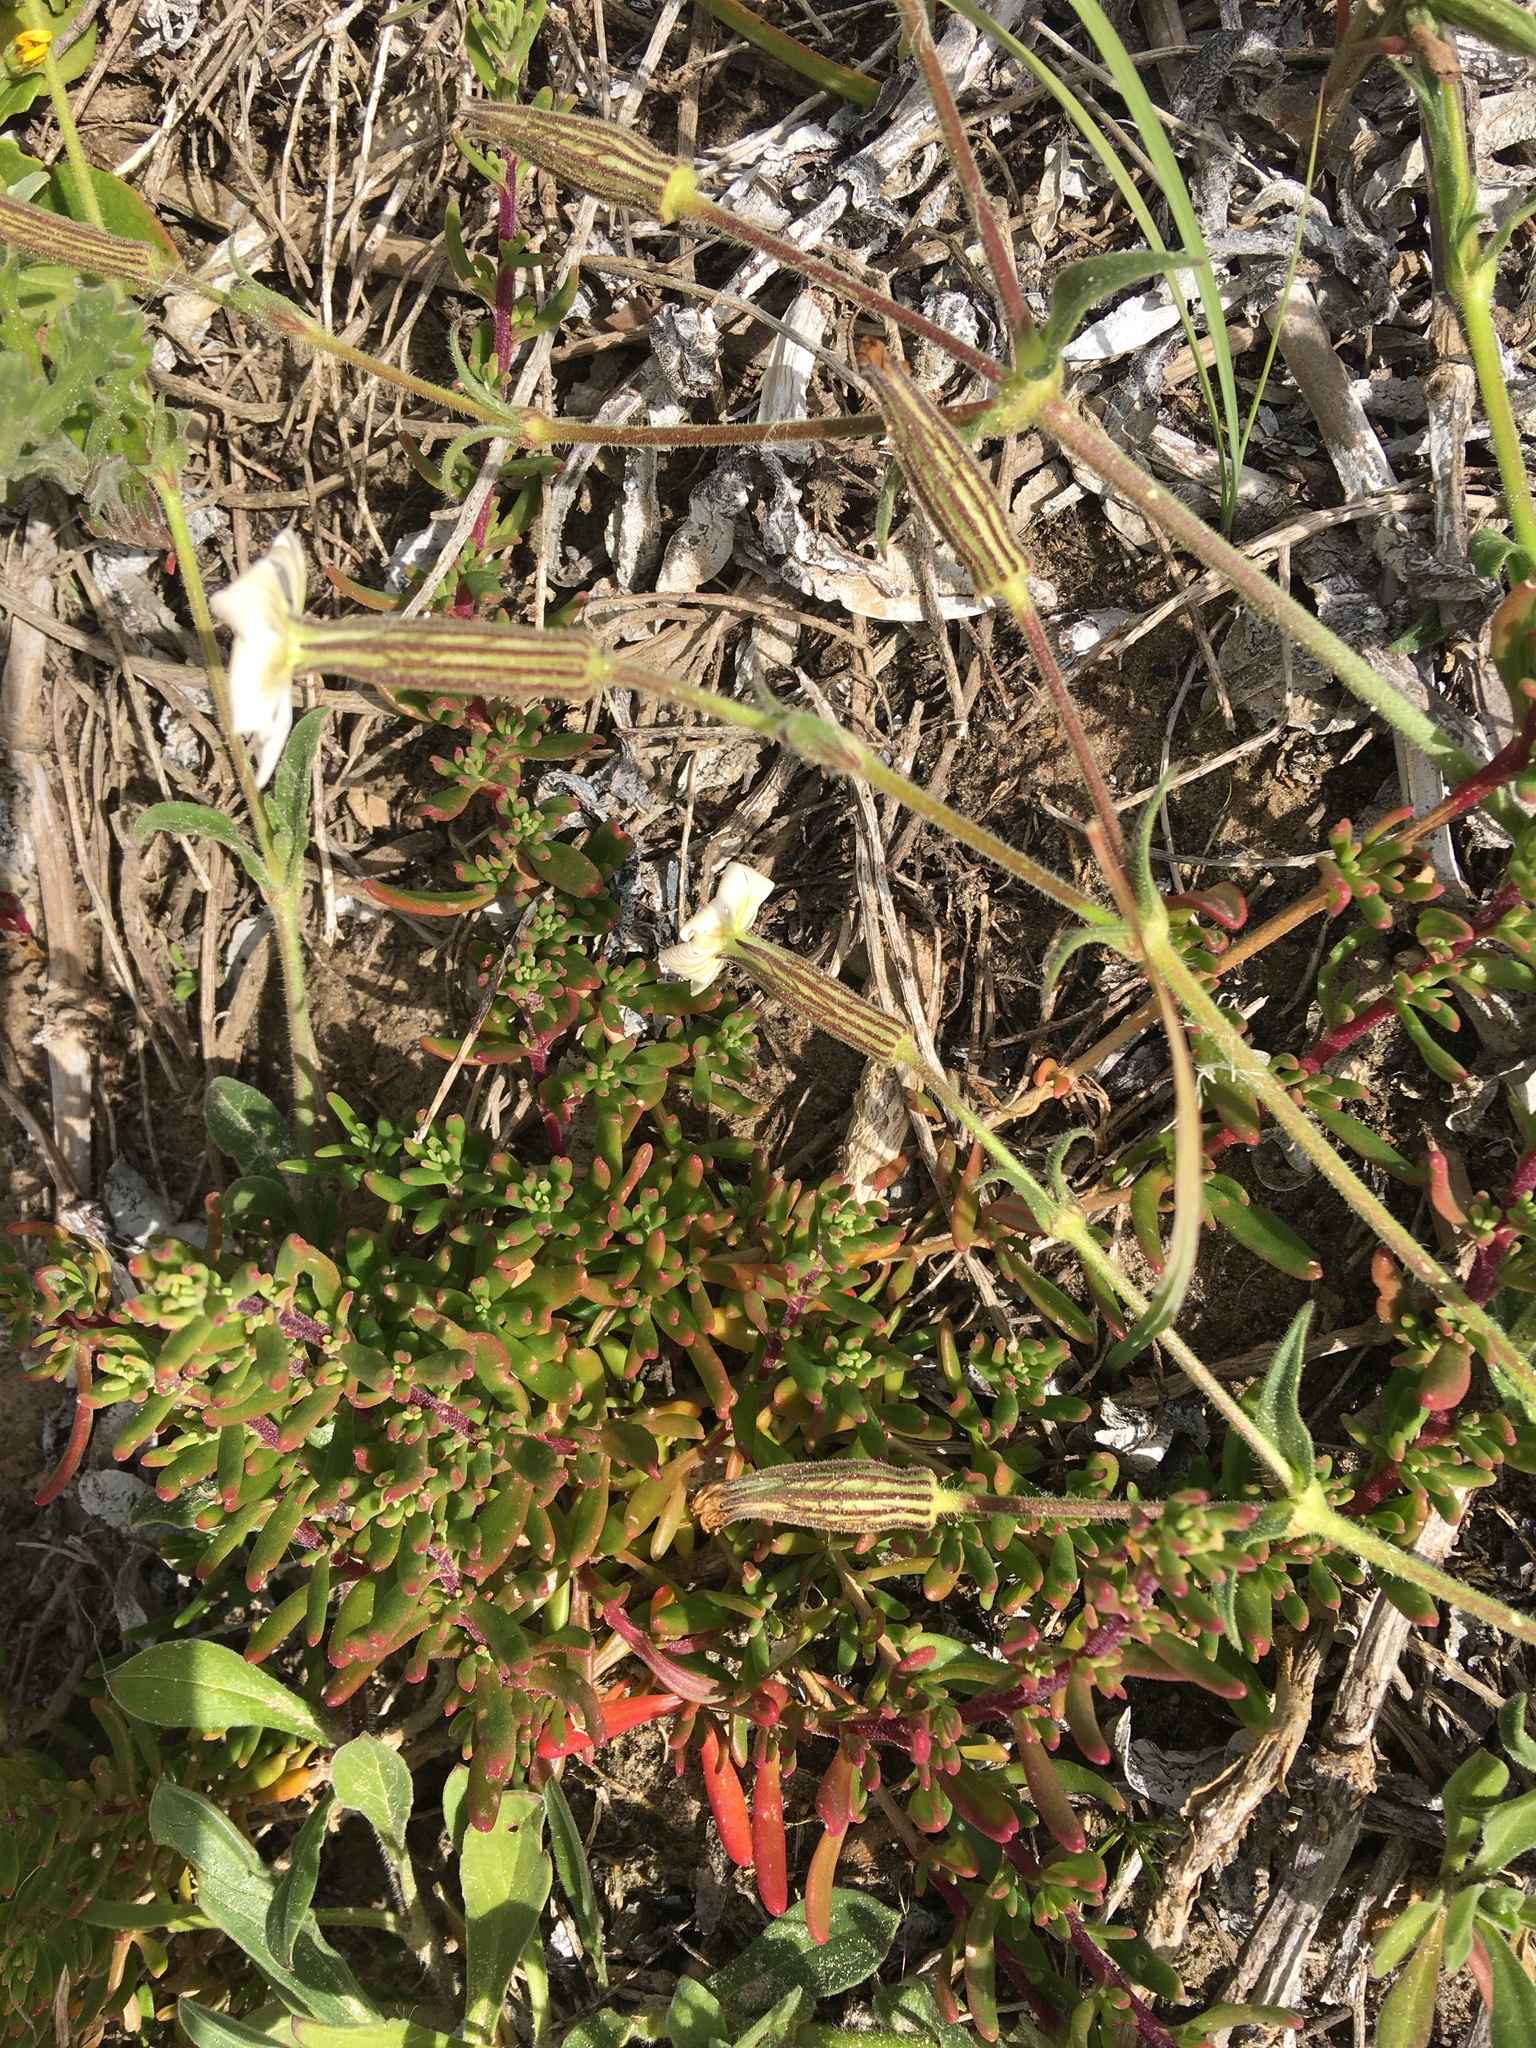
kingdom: Plantae
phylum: Tracheophyta
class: Magnoliopsida
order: Caryophyllales
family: Caryophyllaceae
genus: Silene
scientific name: Silene undulata
